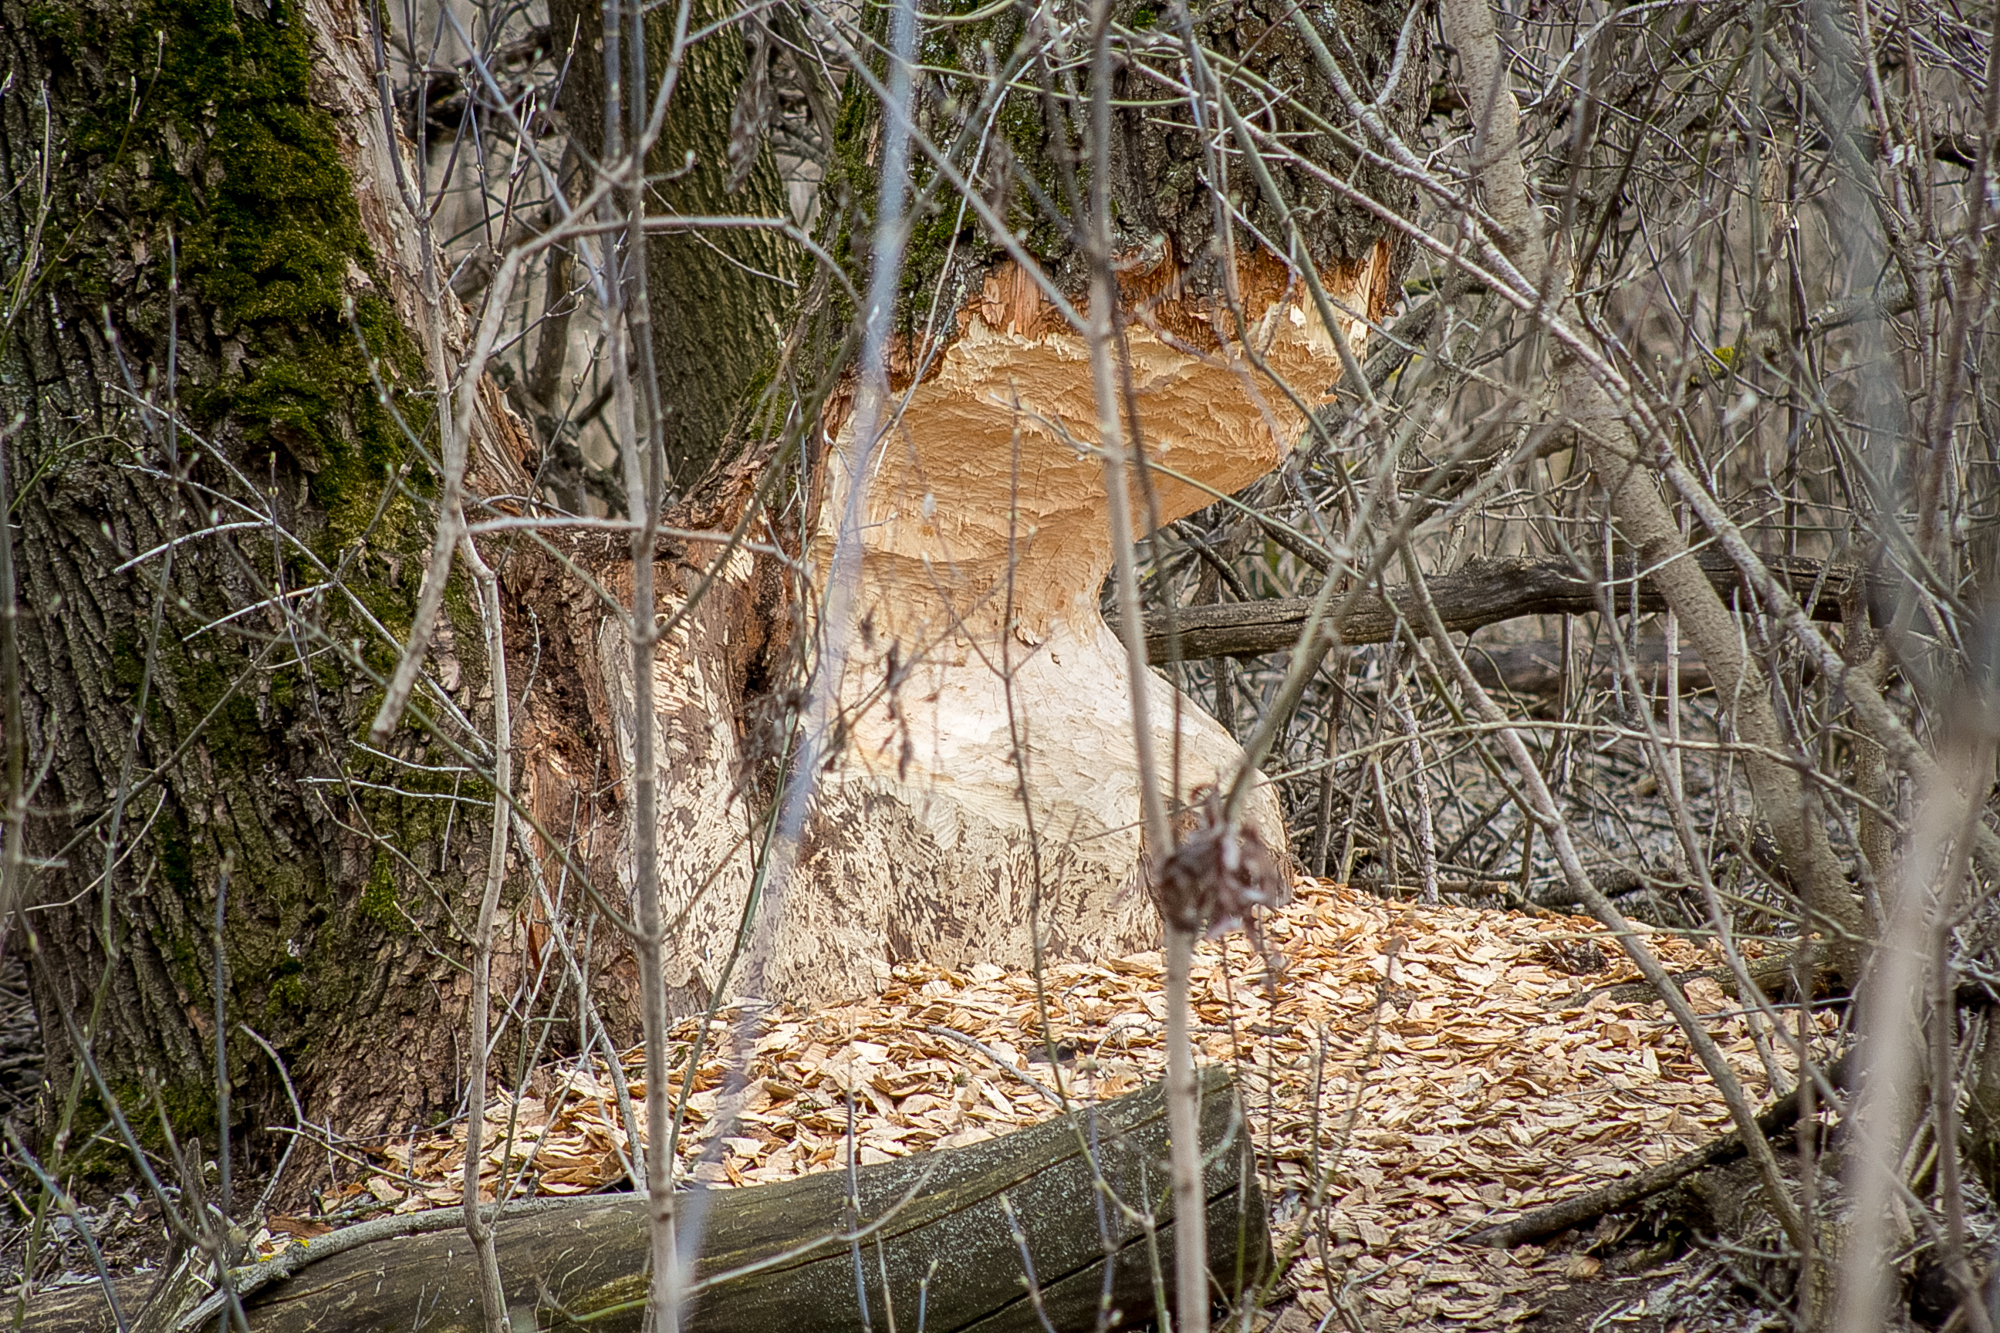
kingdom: Animalia
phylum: Chordata
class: Mammalia
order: Rodentia
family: Castoridae
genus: Castor
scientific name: Castor fiber
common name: Eurasian beaver
